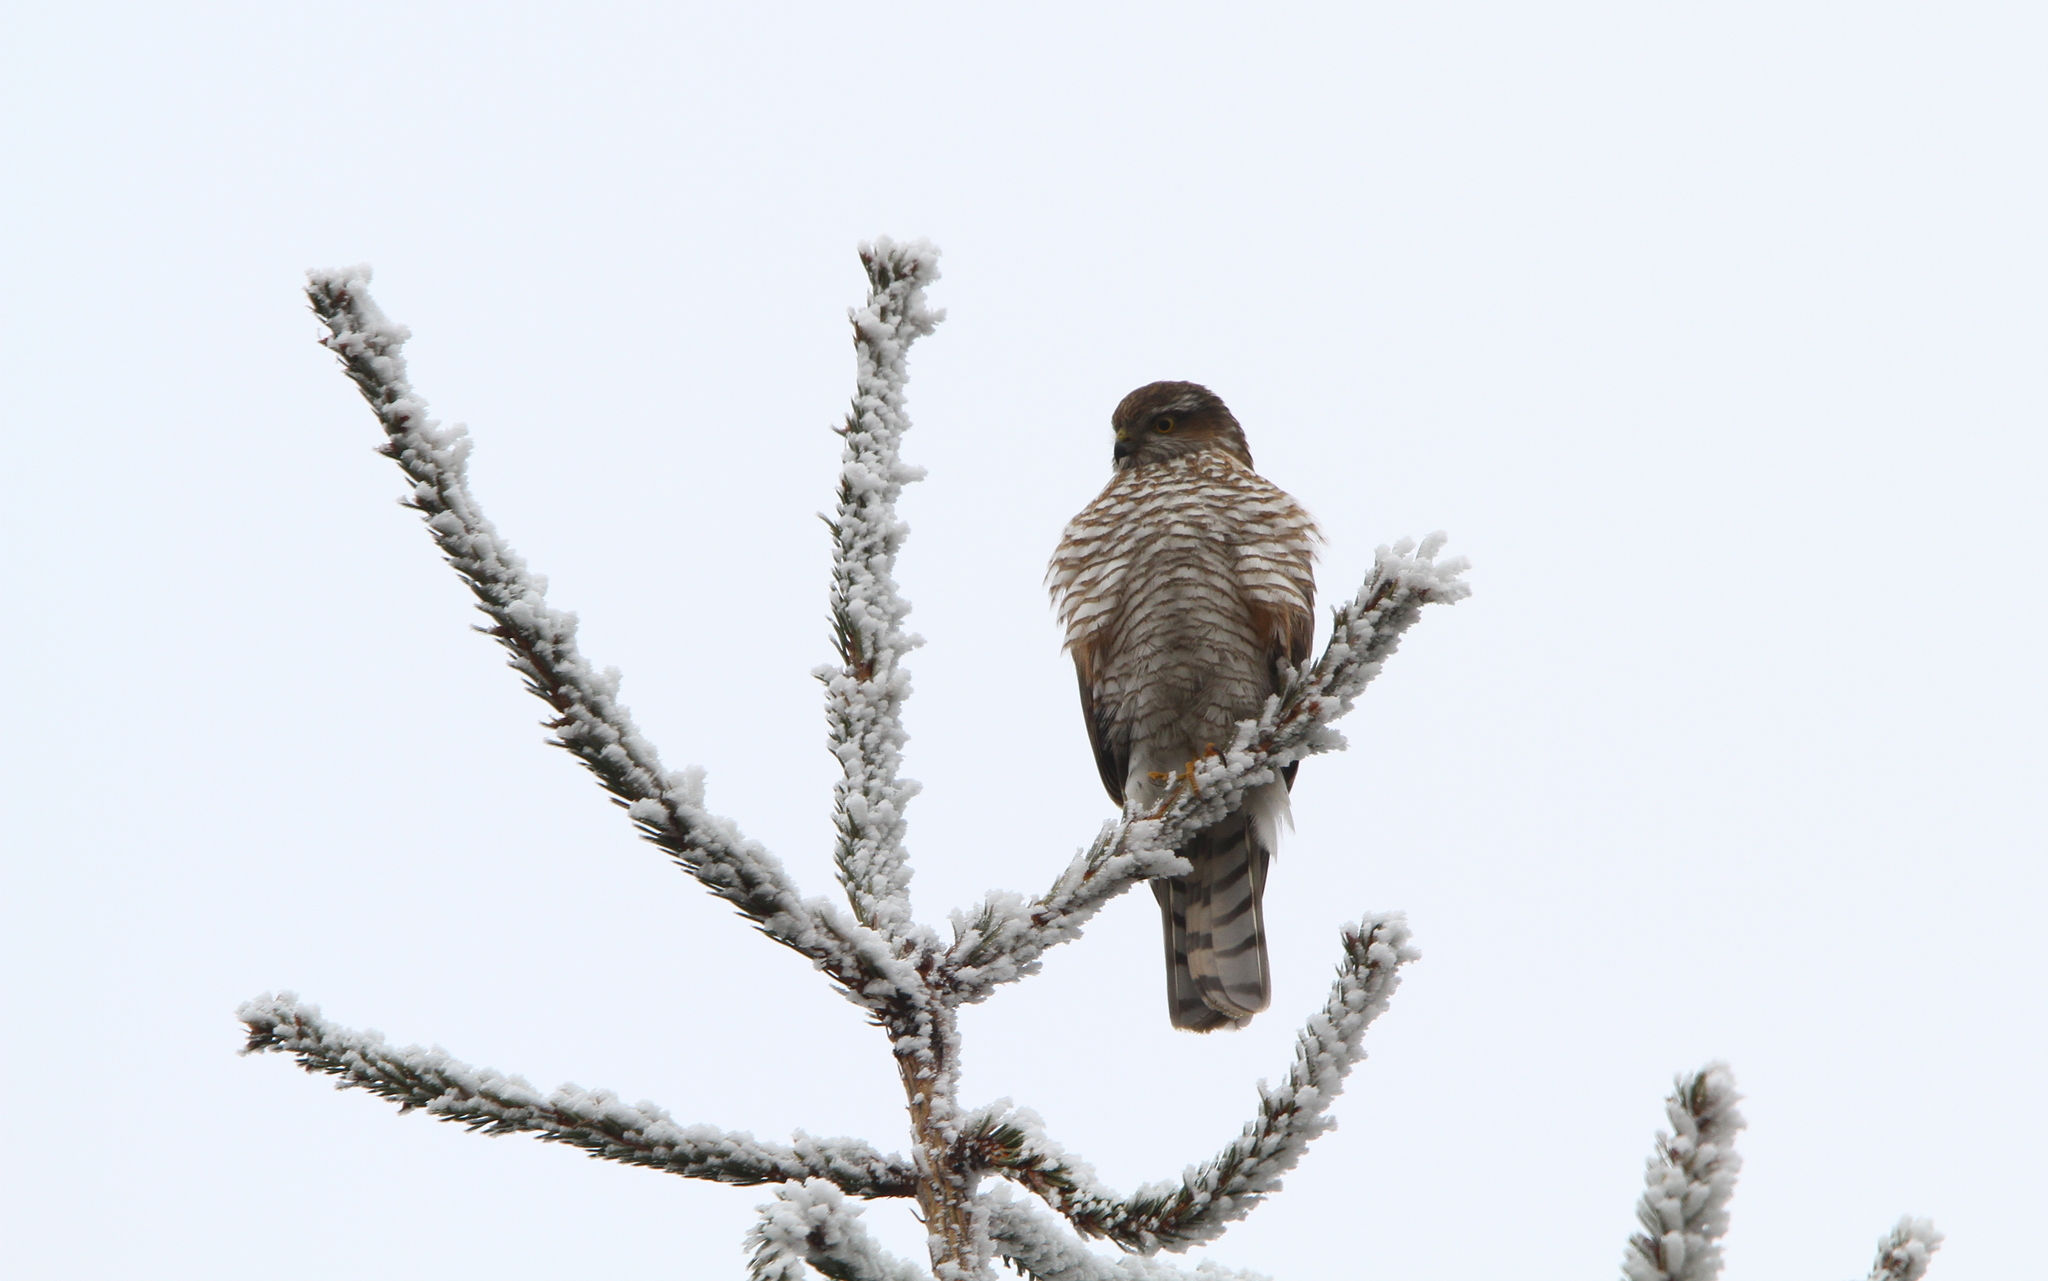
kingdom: Animalia
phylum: Chordata
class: Aves
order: Accipitriformes
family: Accipitridae
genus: Accipiter
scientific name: Accipiter nisus
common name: Eurasian sparrowhawk
